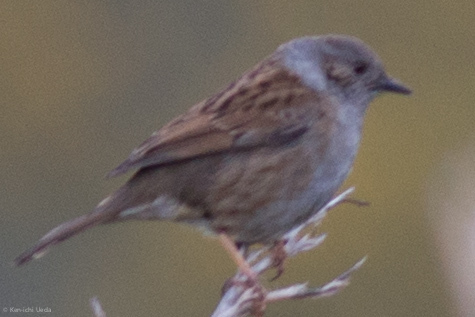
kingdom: Animalia
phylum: Chordata
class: Aves
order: Passeriformes
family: Prunellidae
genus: Prunella
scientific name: Prunella modularis
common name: Dunnock
